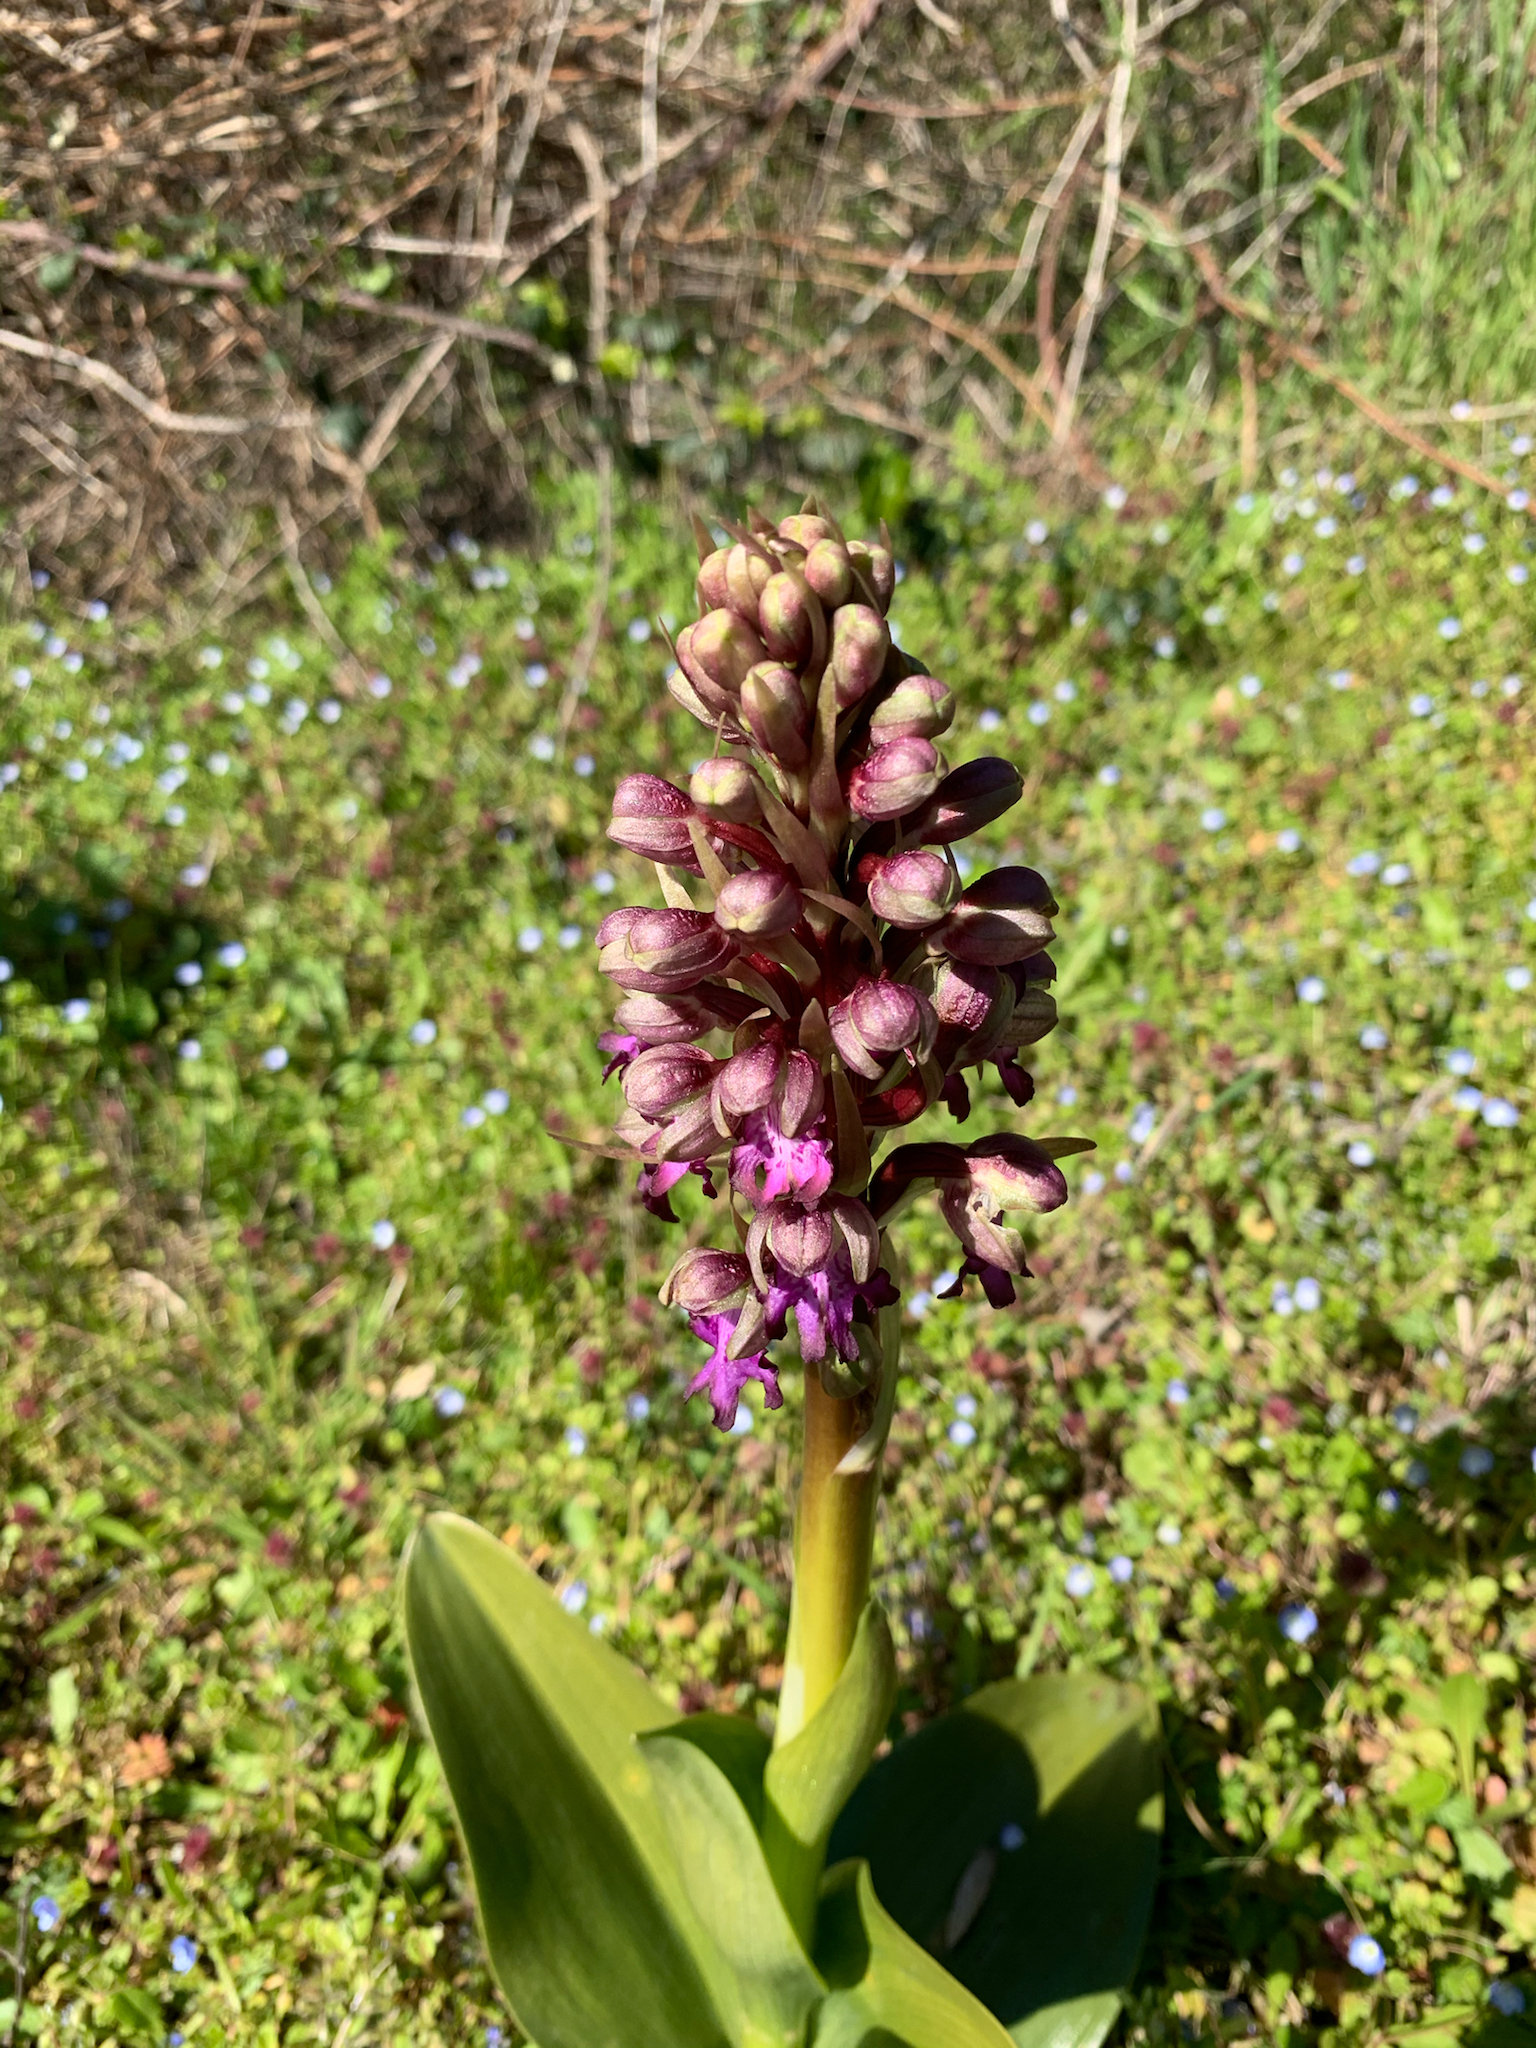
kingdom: Plantae
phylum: Tracheophyta
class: Liliopsida
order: Asparagales
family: Orchidaceae
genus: Himantoglossum
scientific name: Himantoglossum robertianum
